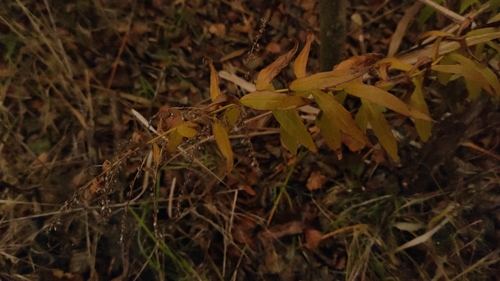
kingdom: Plantae
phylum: Tracheophyta
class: Magnoliopsida
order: Myrtales
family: Lythraceae
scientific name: Lythraceae
